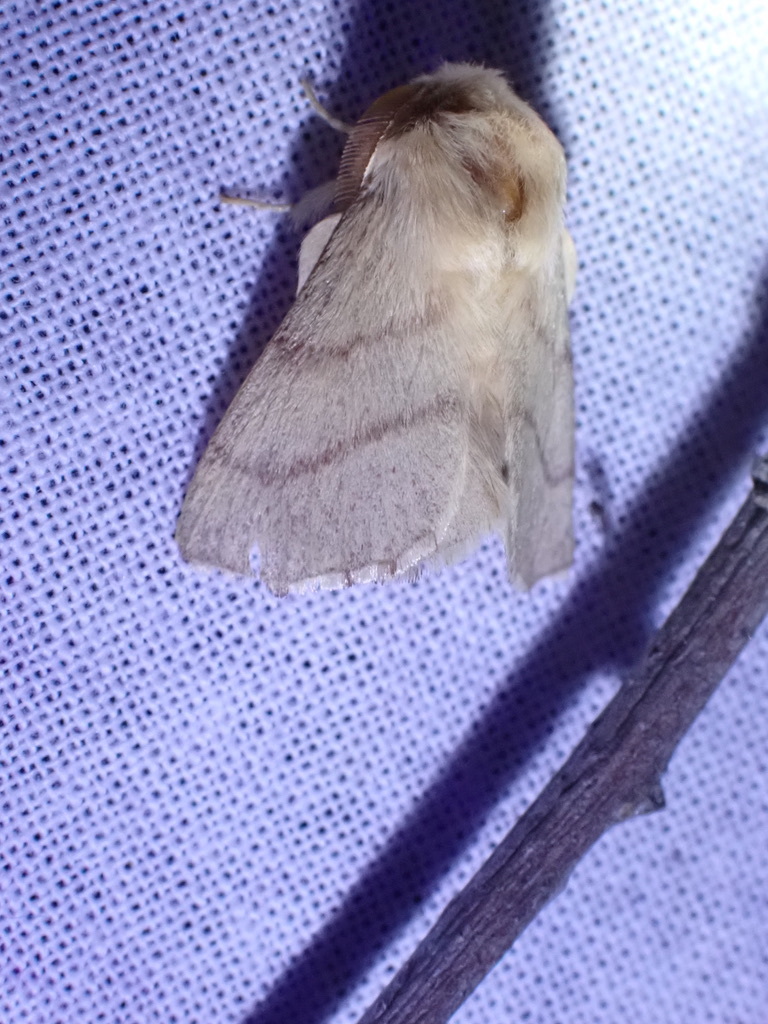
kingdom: Animalia
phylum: Arthropoda
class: Insecta
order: Lepidoptera
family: Lasiocampidae
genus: Malacosoma
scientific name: Malacosoma constricta
